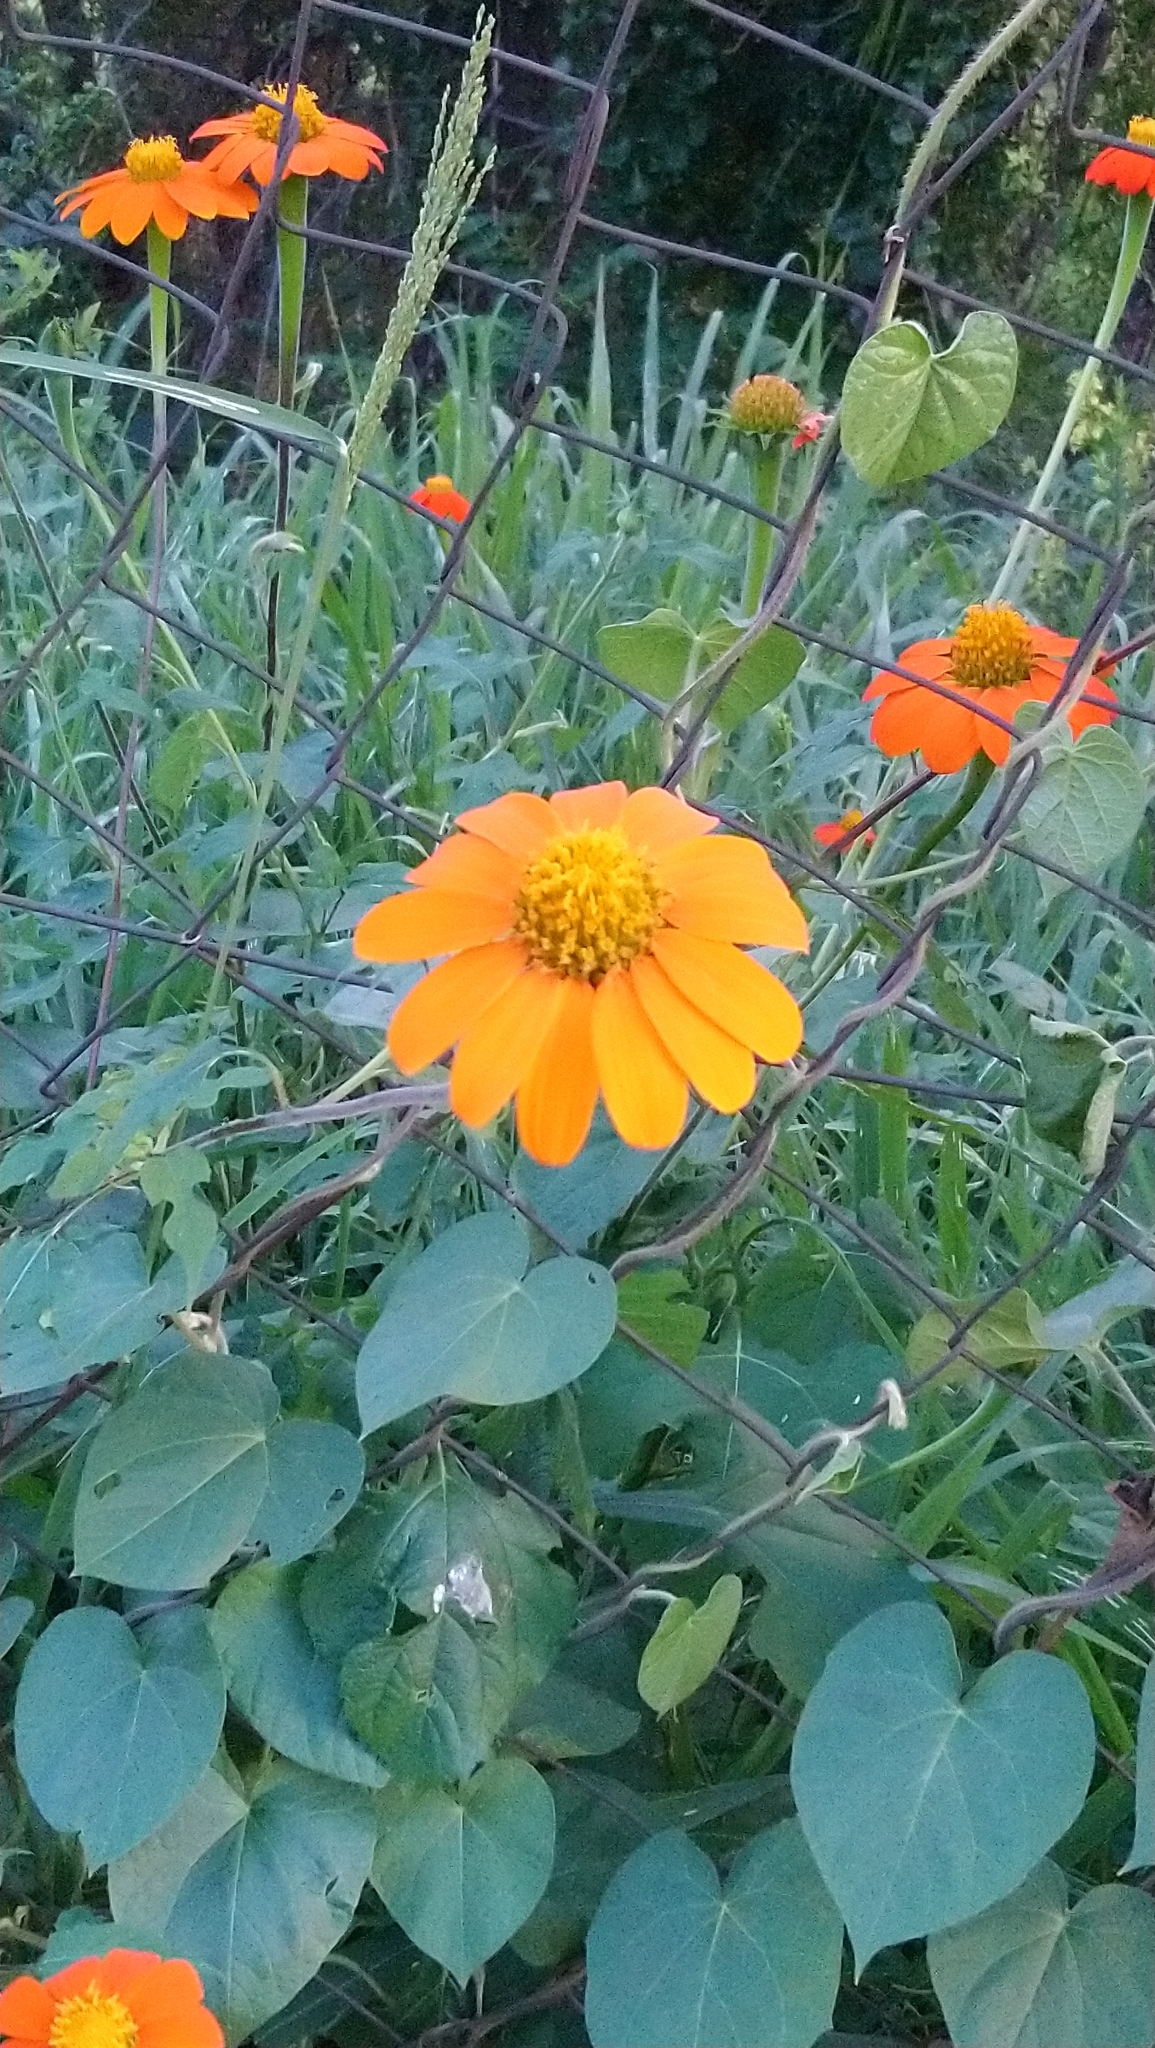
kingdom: Plantae
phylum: Tracheophyta
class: Magnoliopsida
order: Asterales
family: Asteraceae
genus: Tithonia
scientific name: Tithonia rotundifolia
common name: Sunflower
